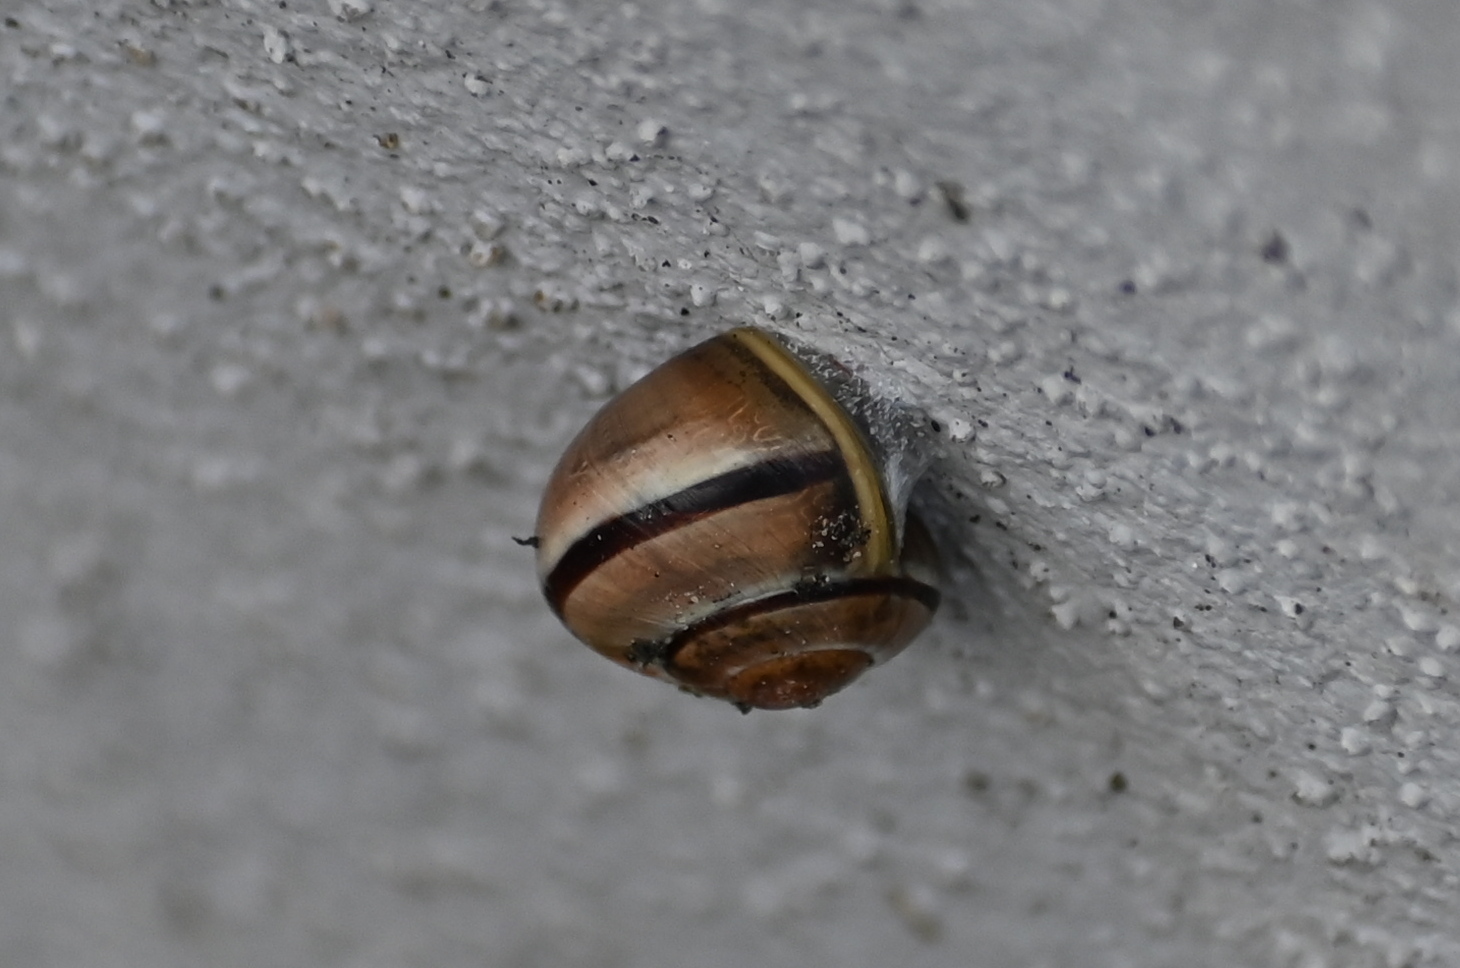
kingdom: Animalia
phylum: Mollusca
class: Gastropoda
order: Stylommatophora
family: Helicidae
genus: Cepaea
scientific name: Cepaea nemoralis
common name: Grovesnail
